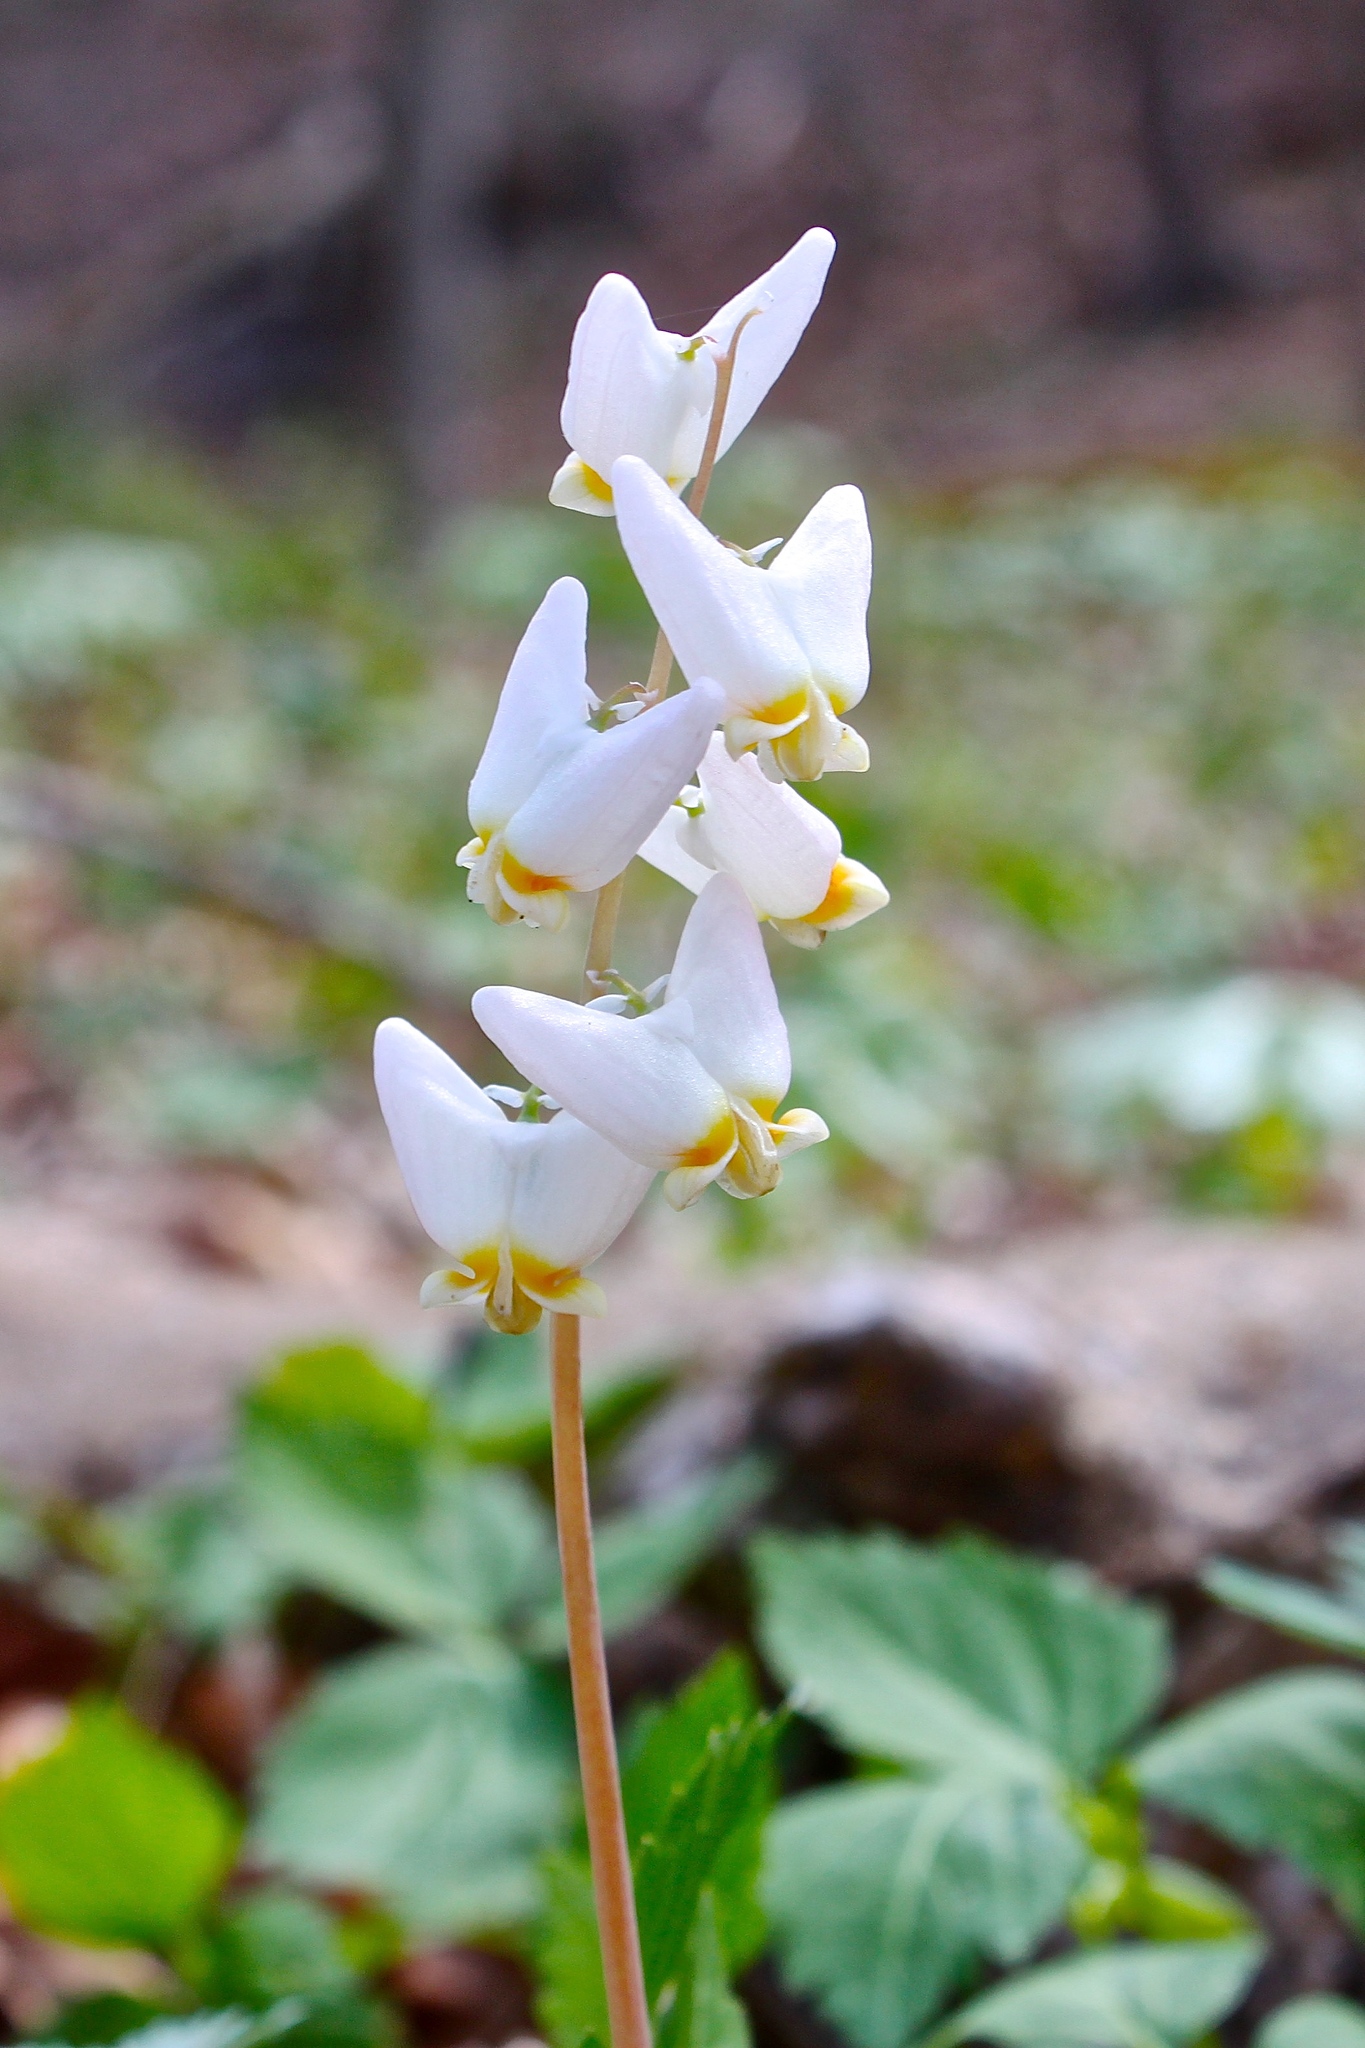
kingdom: Plantae
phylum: Tracheophyta
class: Magnoliopsida
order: Ranunculales
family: Papaveraceae
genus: Dicentra
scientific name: Dicentra cucullaria
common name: Dutchman's breeches
